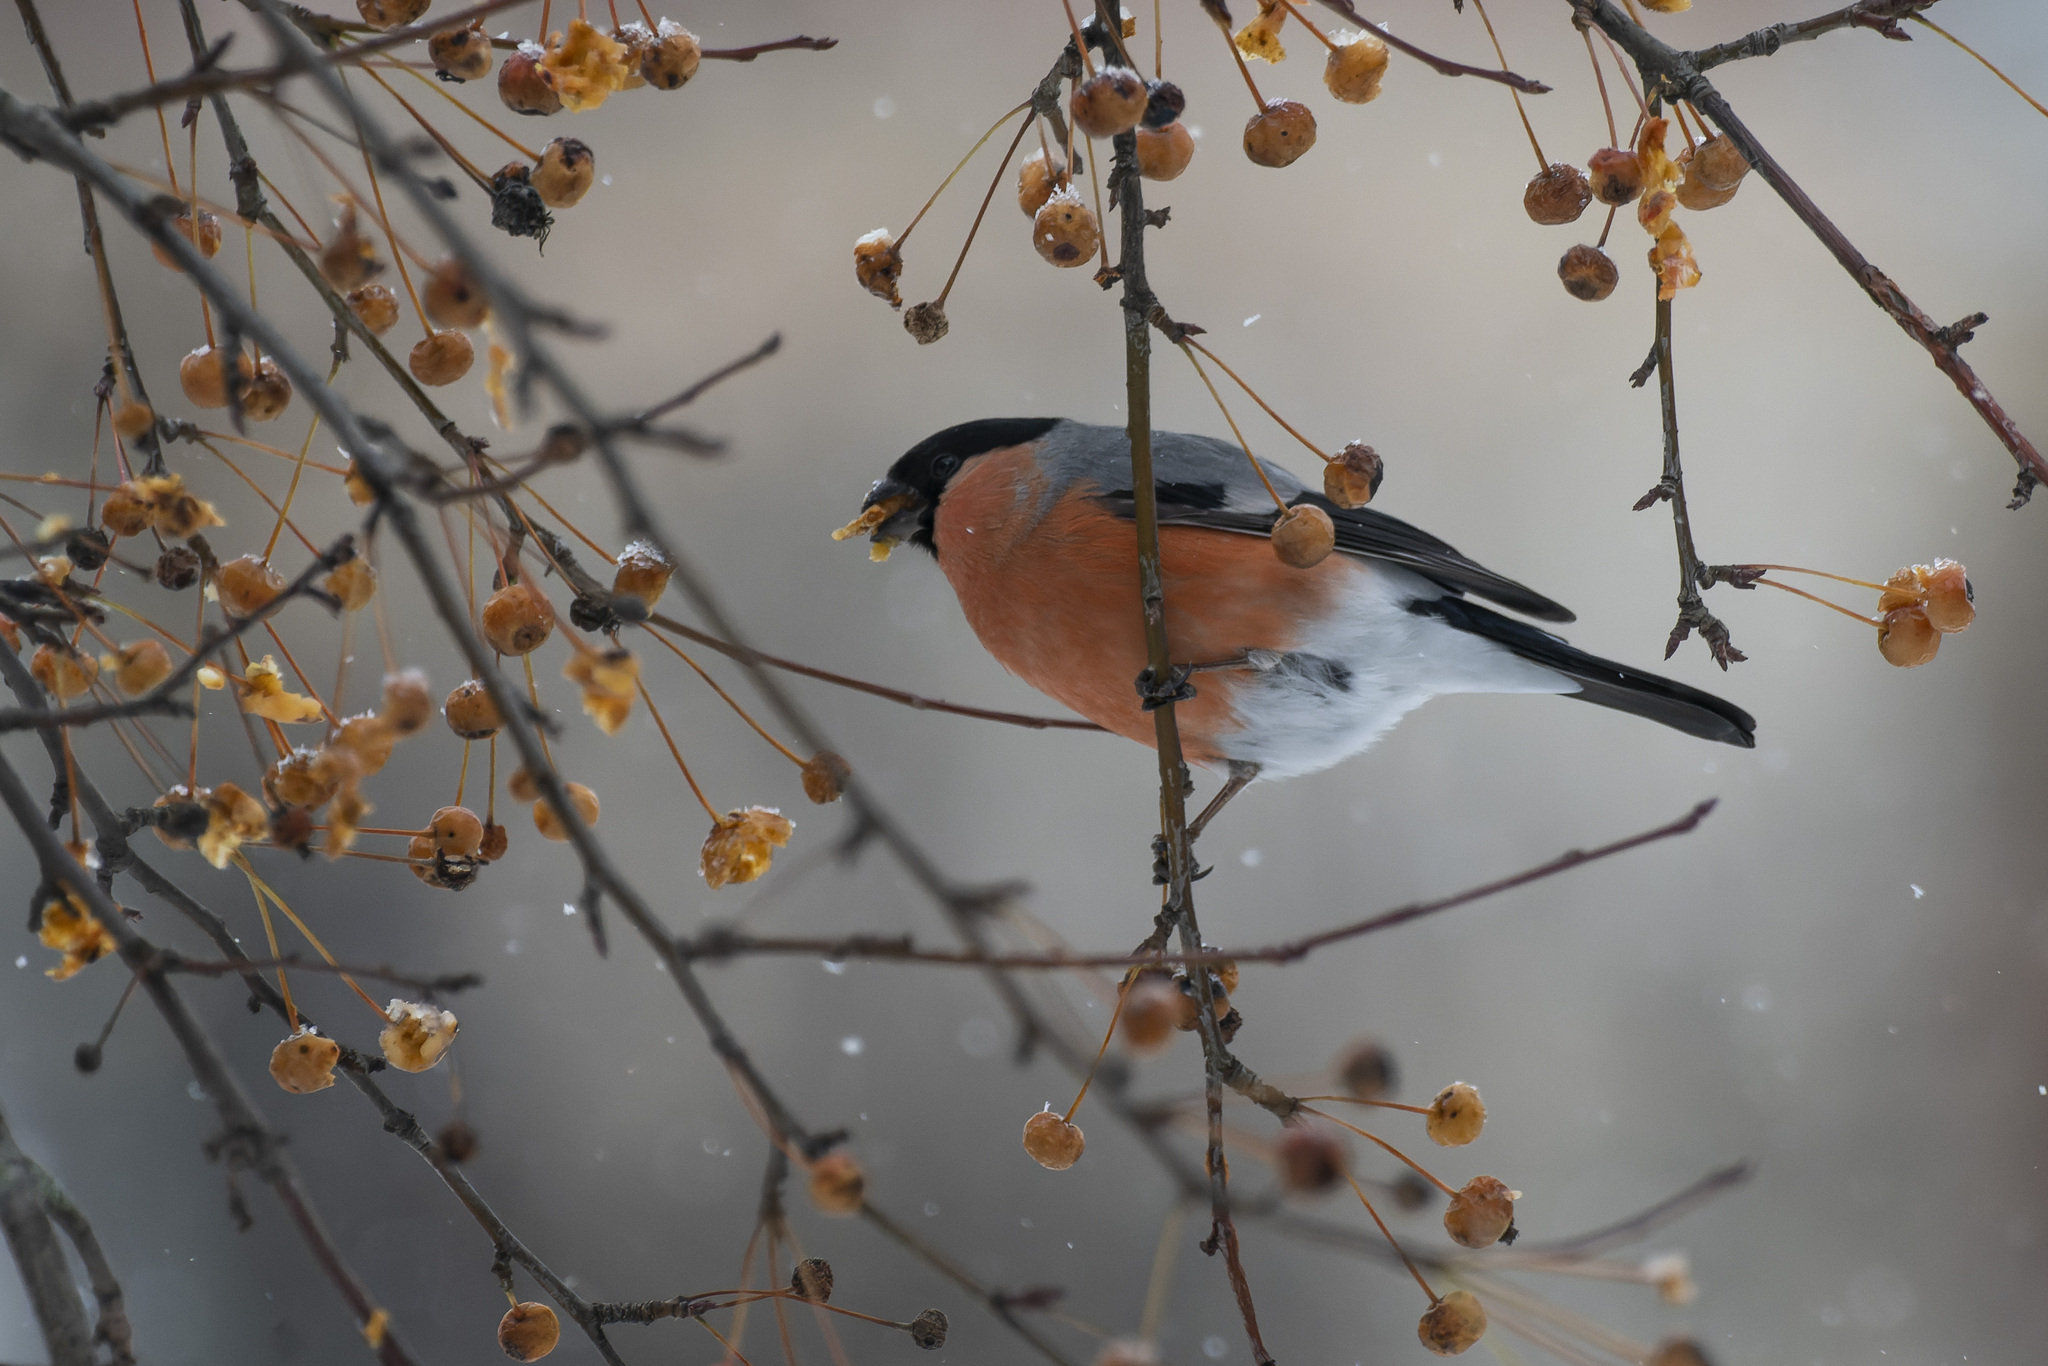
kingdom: Animalia
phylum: Chordata
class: Aves
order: Passeriformes
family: Fringillidae
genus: Pyrrhula
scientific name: Pyrrhula pyrrhula
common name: Eurasian bullfinch
